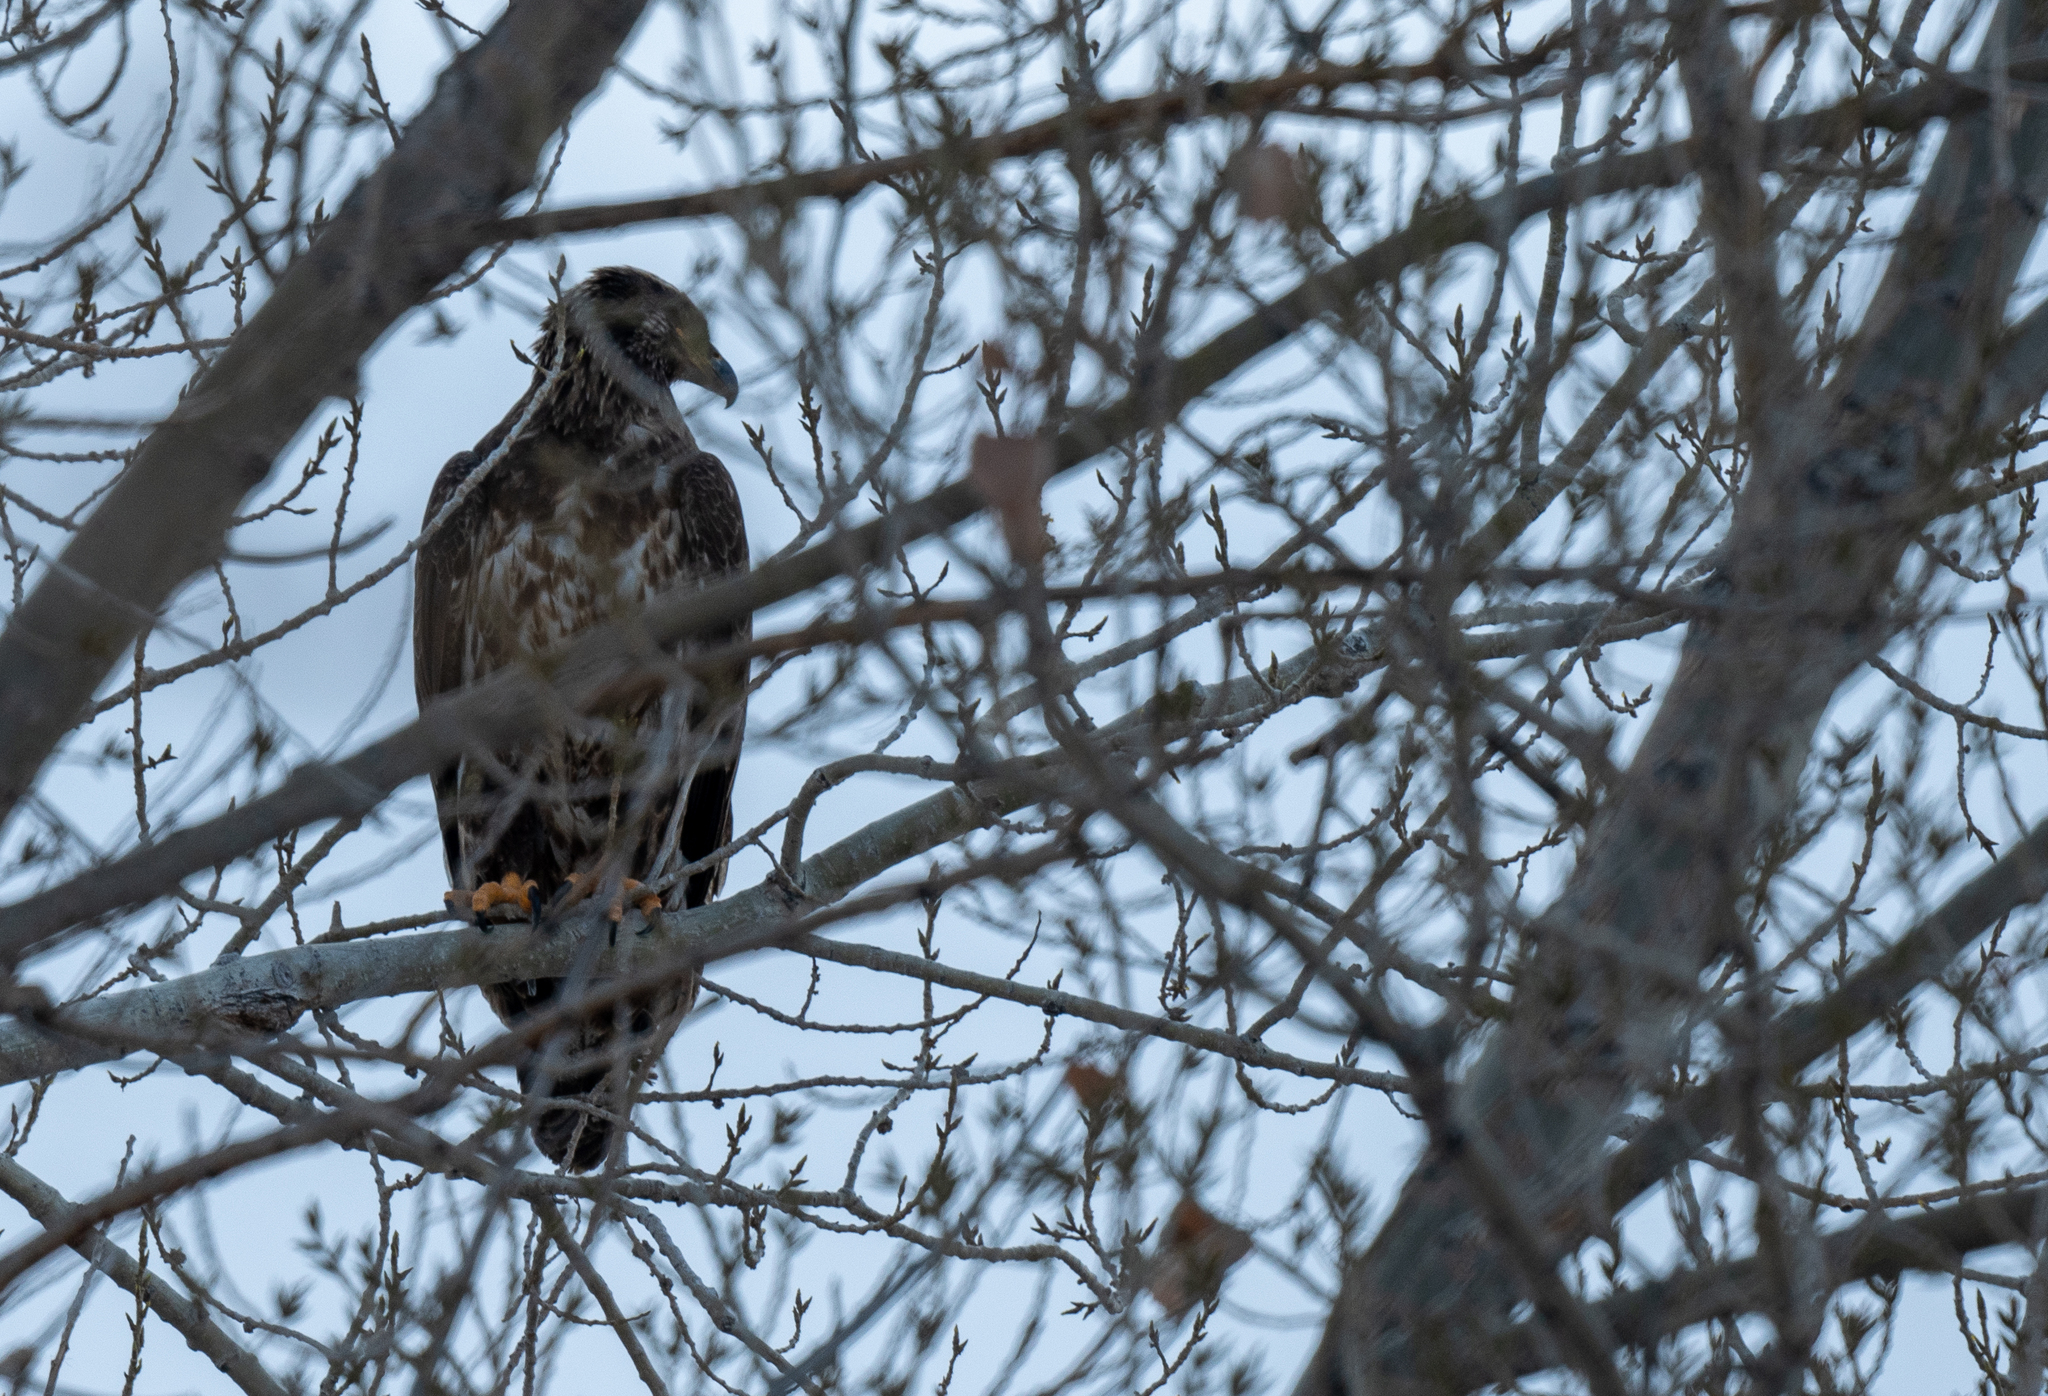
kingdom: Animalia
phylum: Chordata
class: Aves
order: Accipitriformes
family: Accipitridae
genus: Haliaeetus
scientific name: Haliaeetus leucocephalus
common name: Bald eagle
